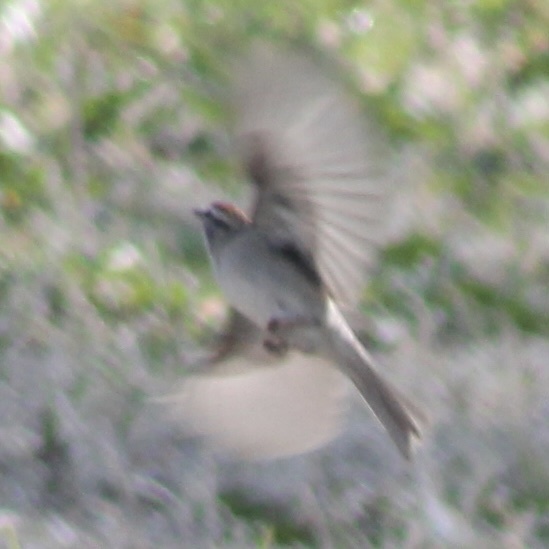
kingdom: Animalia
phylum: Chordata
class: Aves
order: Passeriformes
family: Passerellidae
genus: Spizella
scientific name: Spizella passerina
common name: Chipping sparrow
